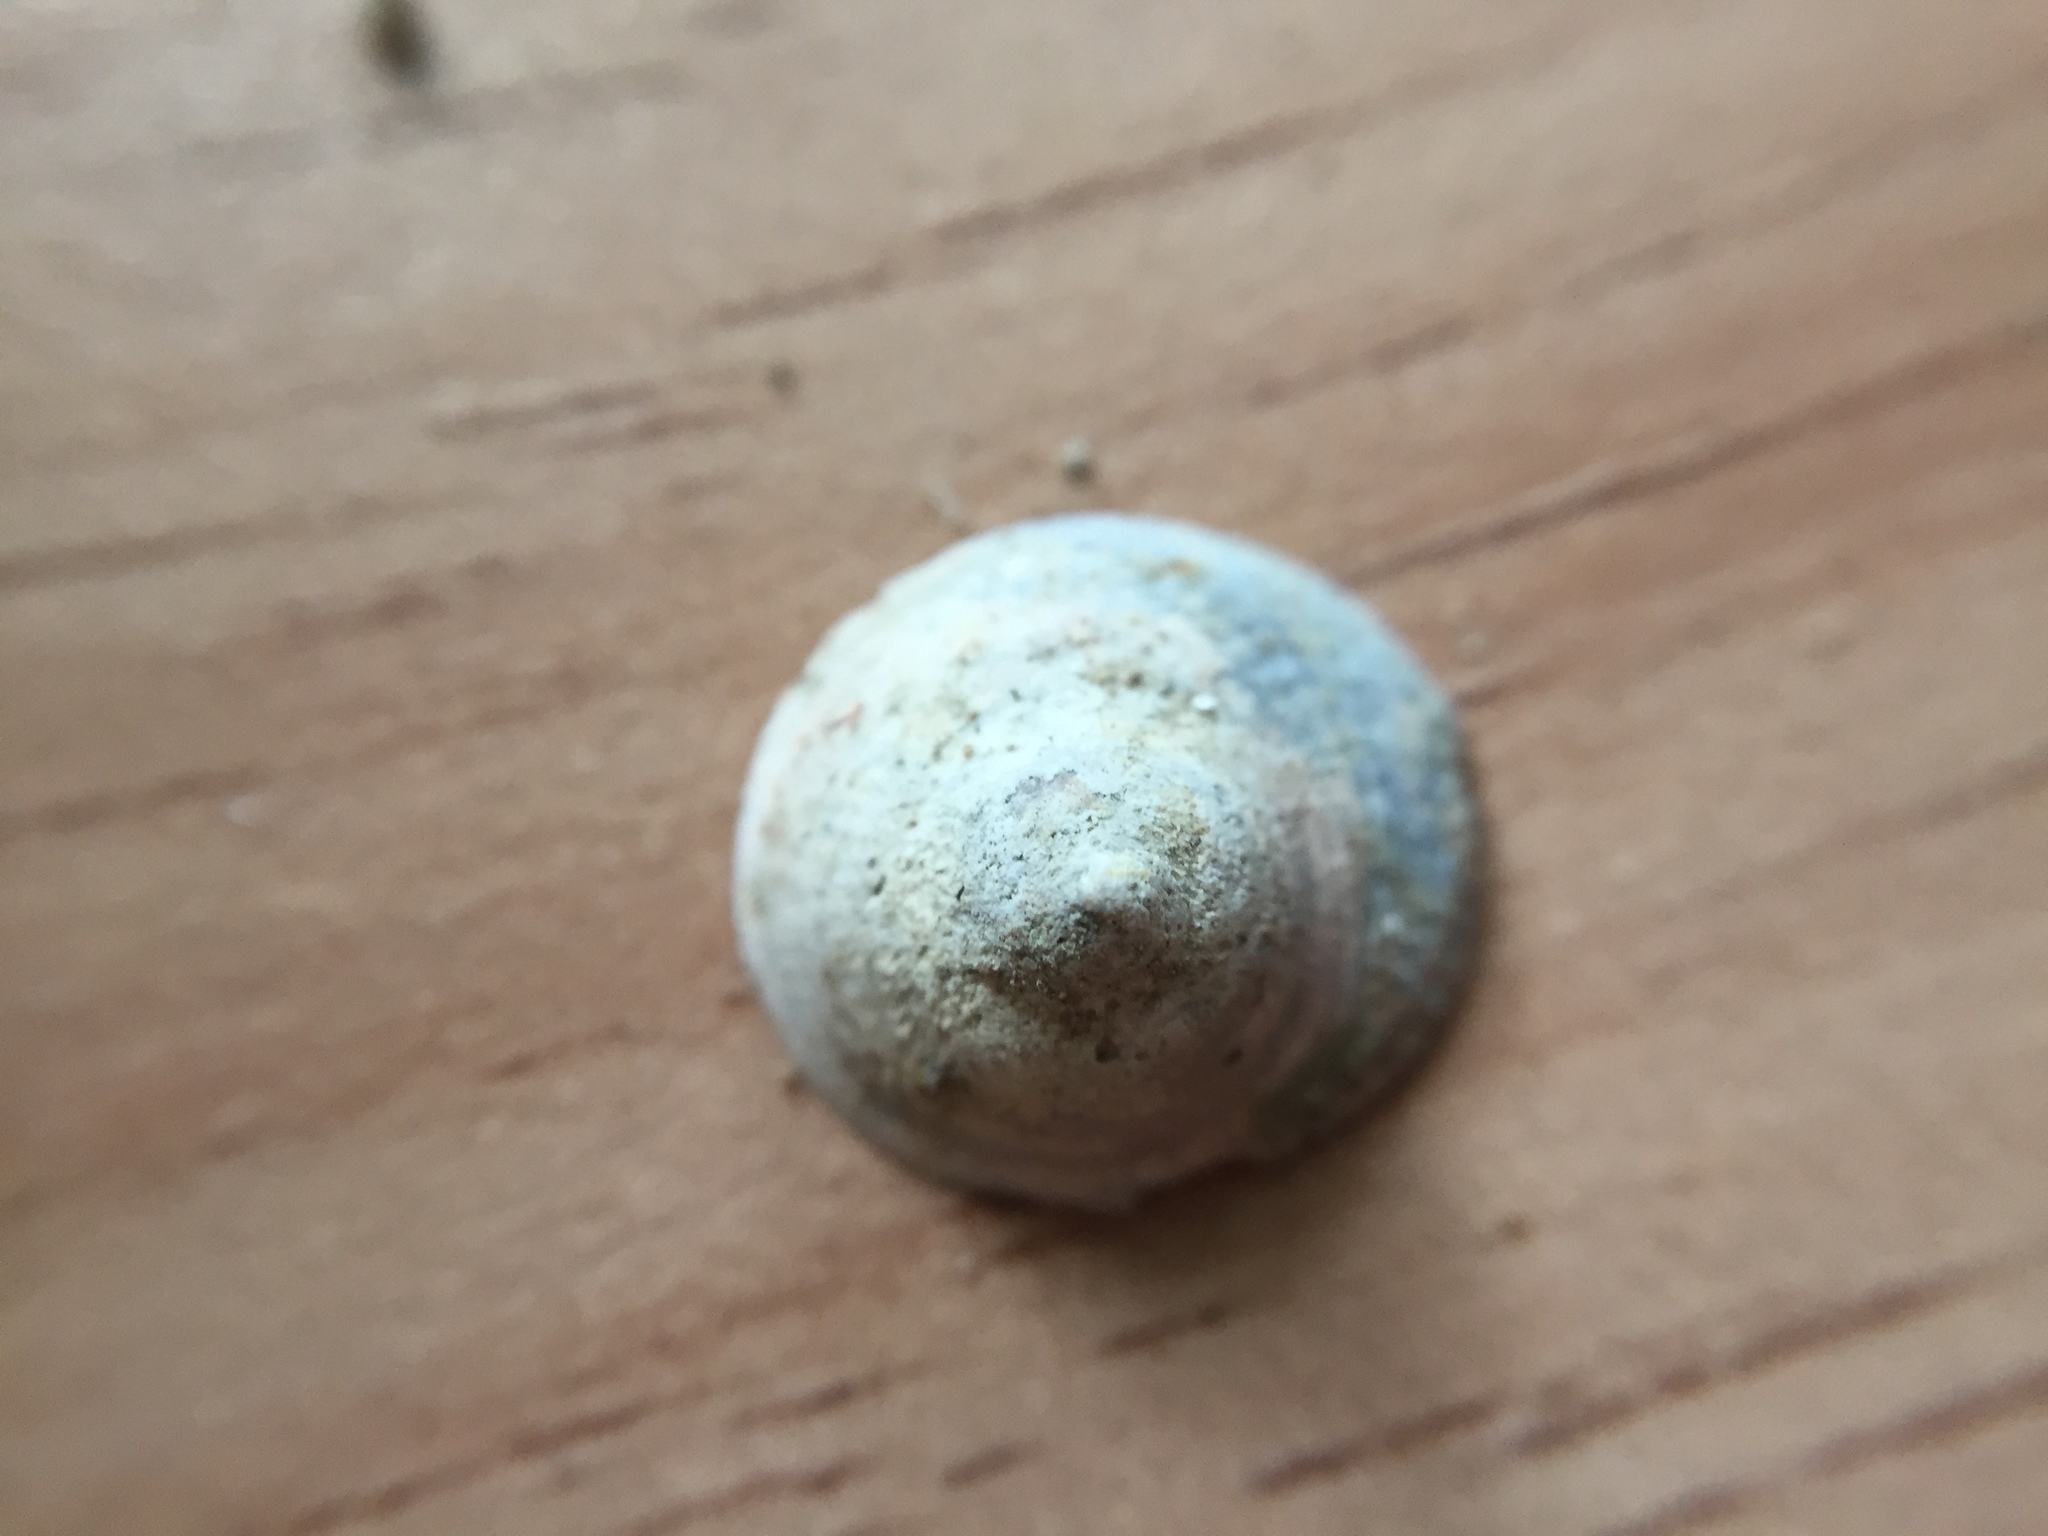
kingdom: Animalia
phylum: Mollusca
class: Gastropoda
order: Littorinimorpha
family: Calyptraeidae
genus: Sigapatella
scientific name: Sigapatella tenuis
